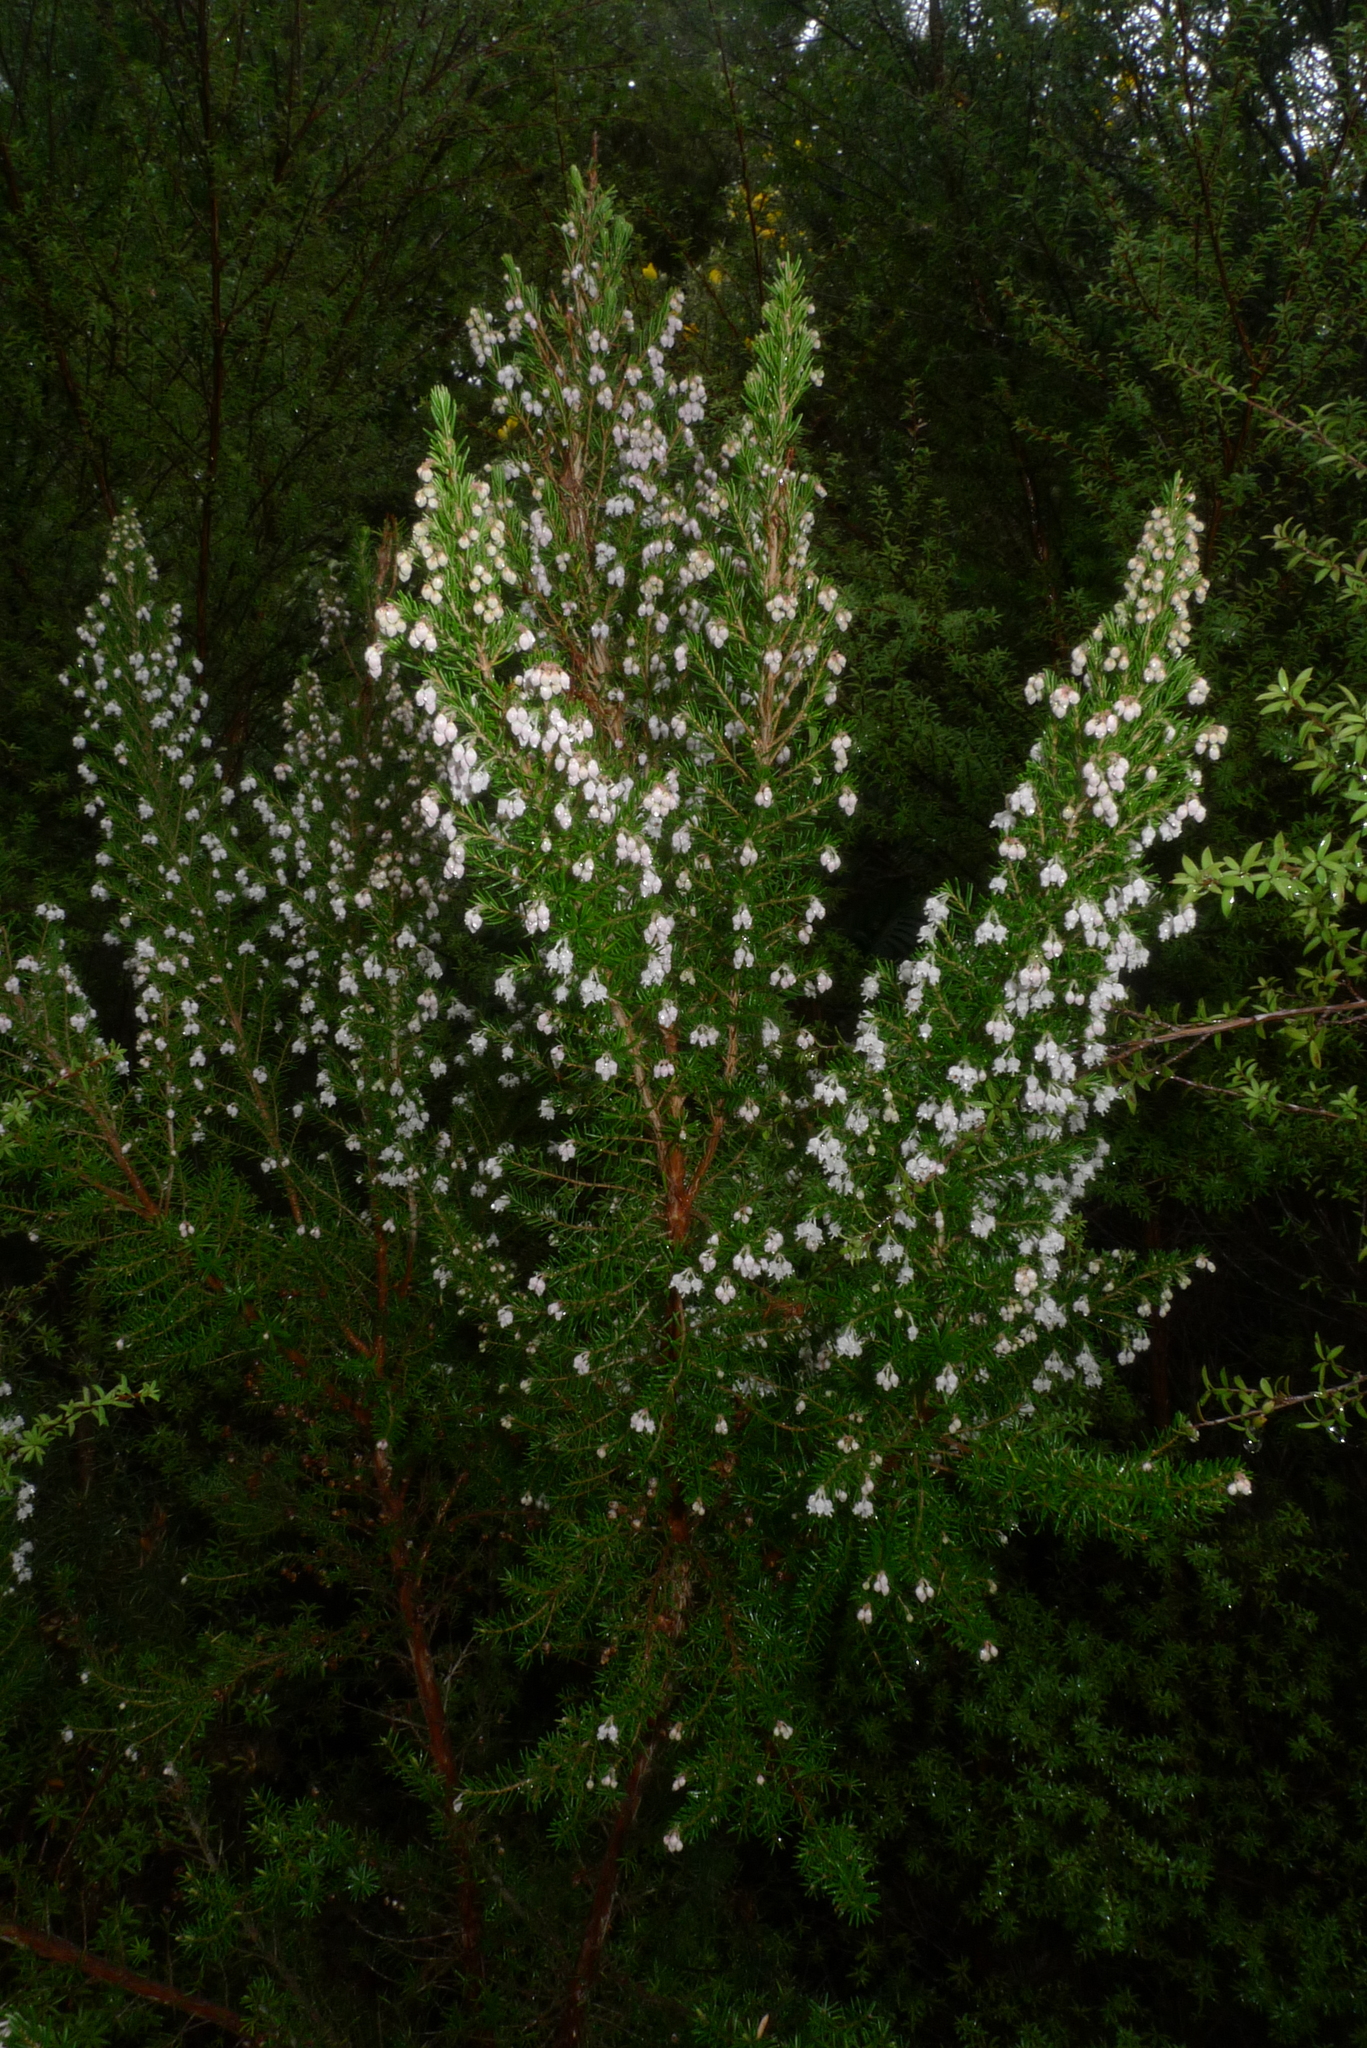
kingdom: Plantae
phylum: Tracheophyta
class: Magnoliopsida
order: Ericales
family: Ericaceae
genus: Erica
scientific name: Erica arborea
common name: Tree heath
